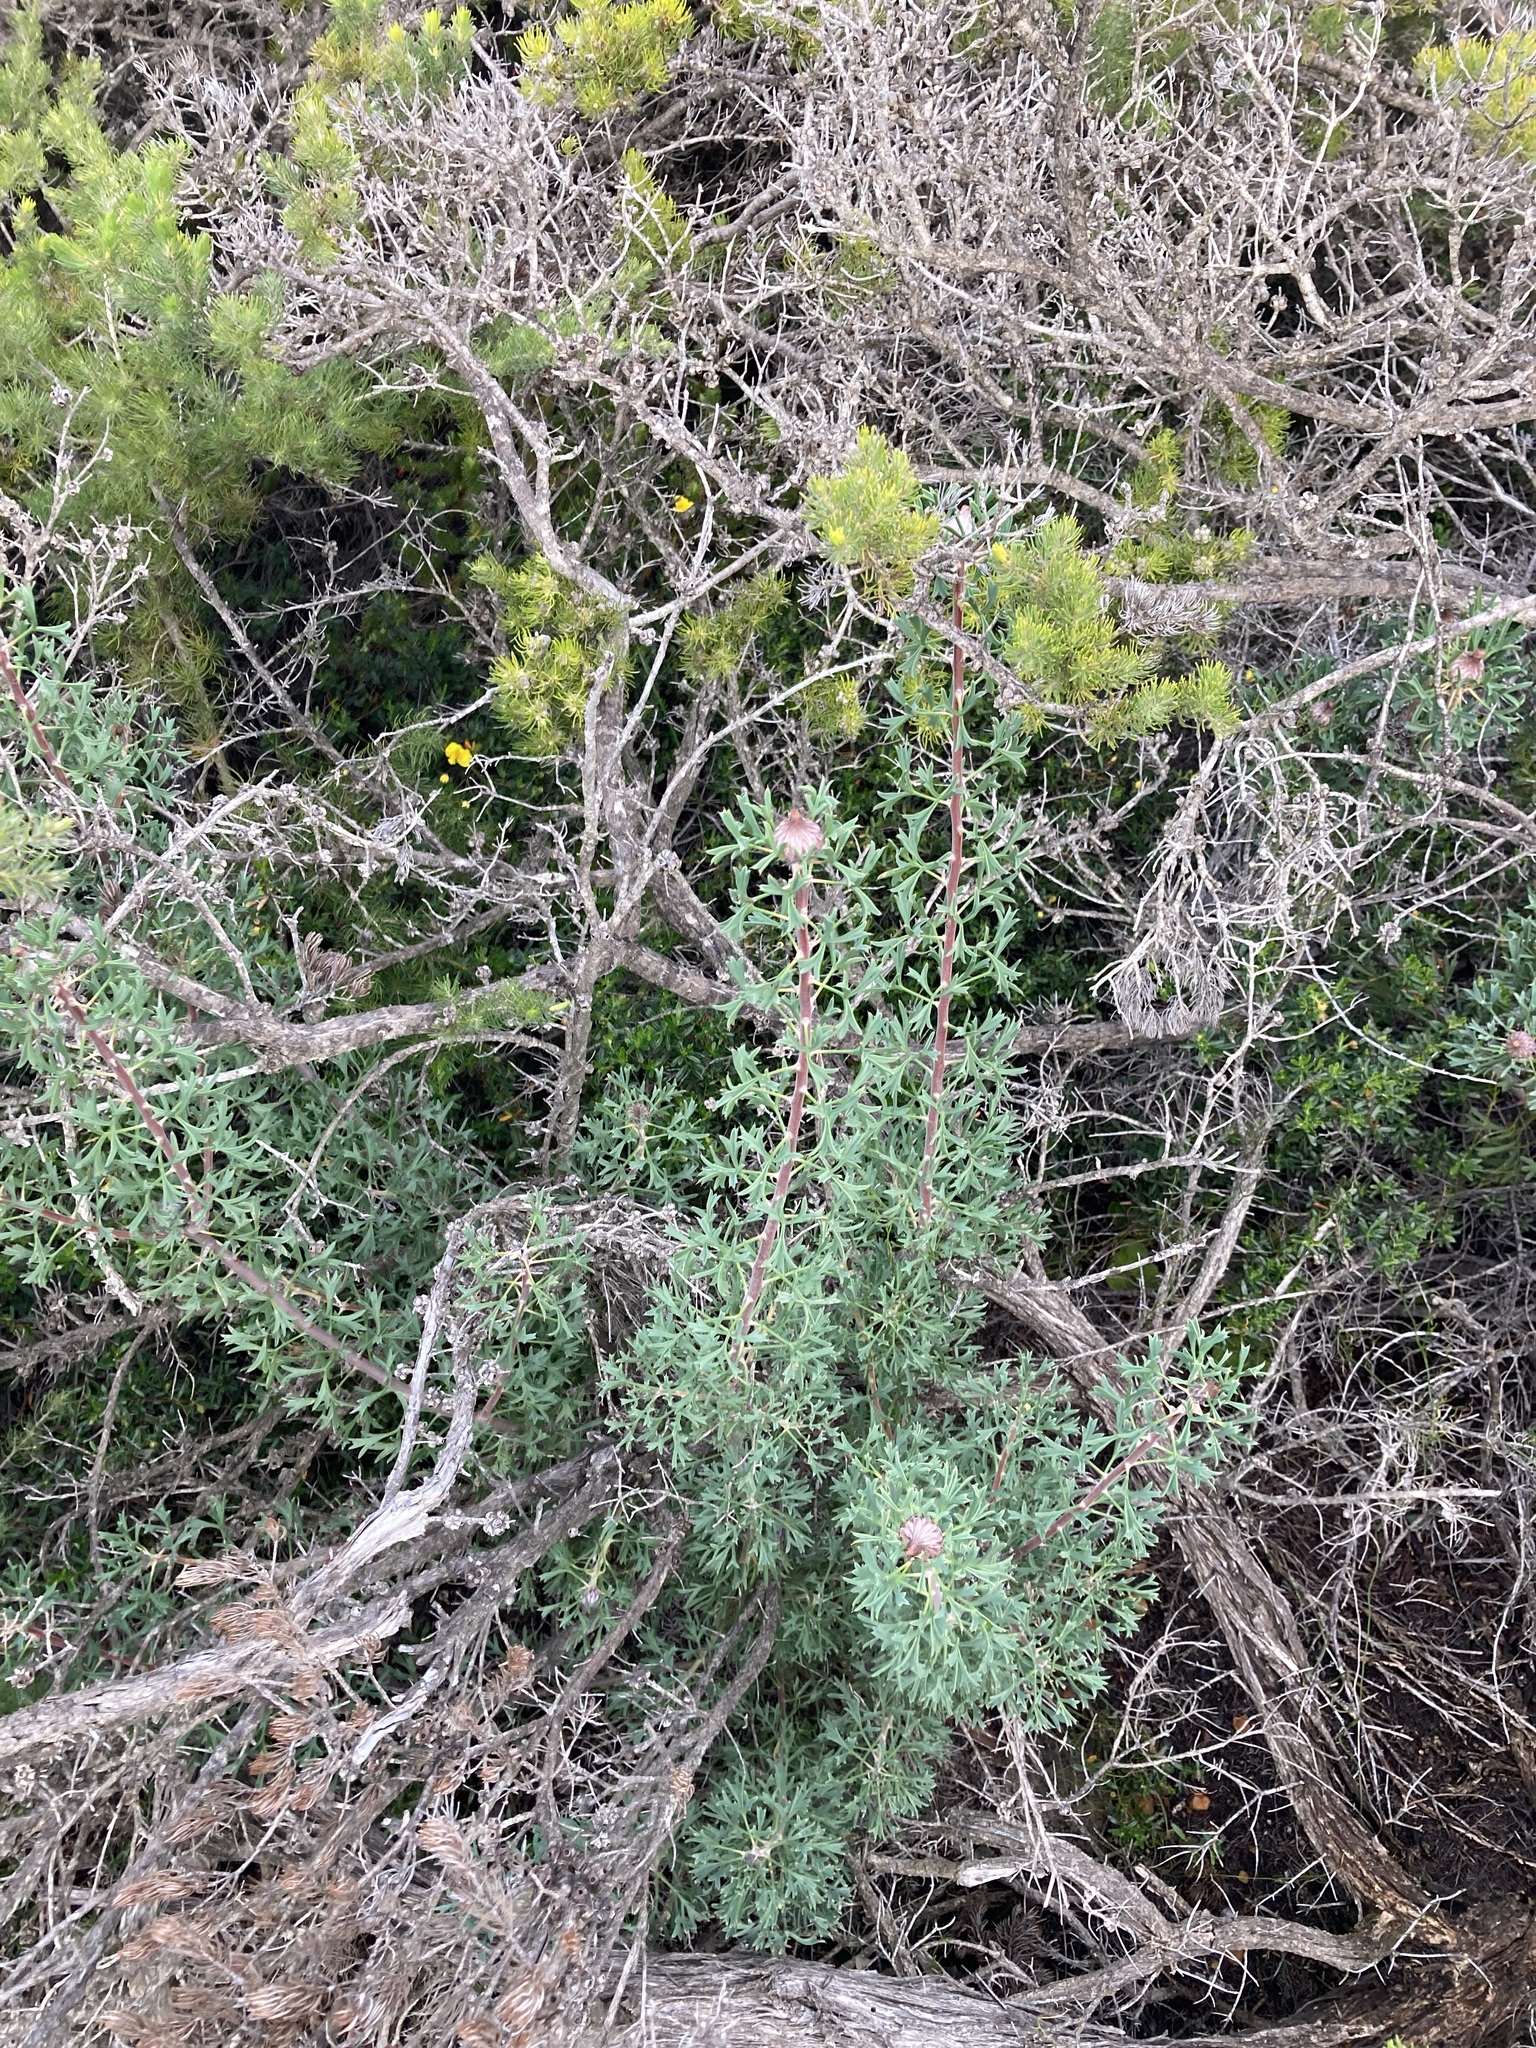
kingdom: Plantae
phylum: Tracheophyta
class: Magnoliopsida
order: Proteales
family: Proteaceae
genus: Isopogon
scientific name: Isopogon dubius
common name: Pincushion-coneflower
